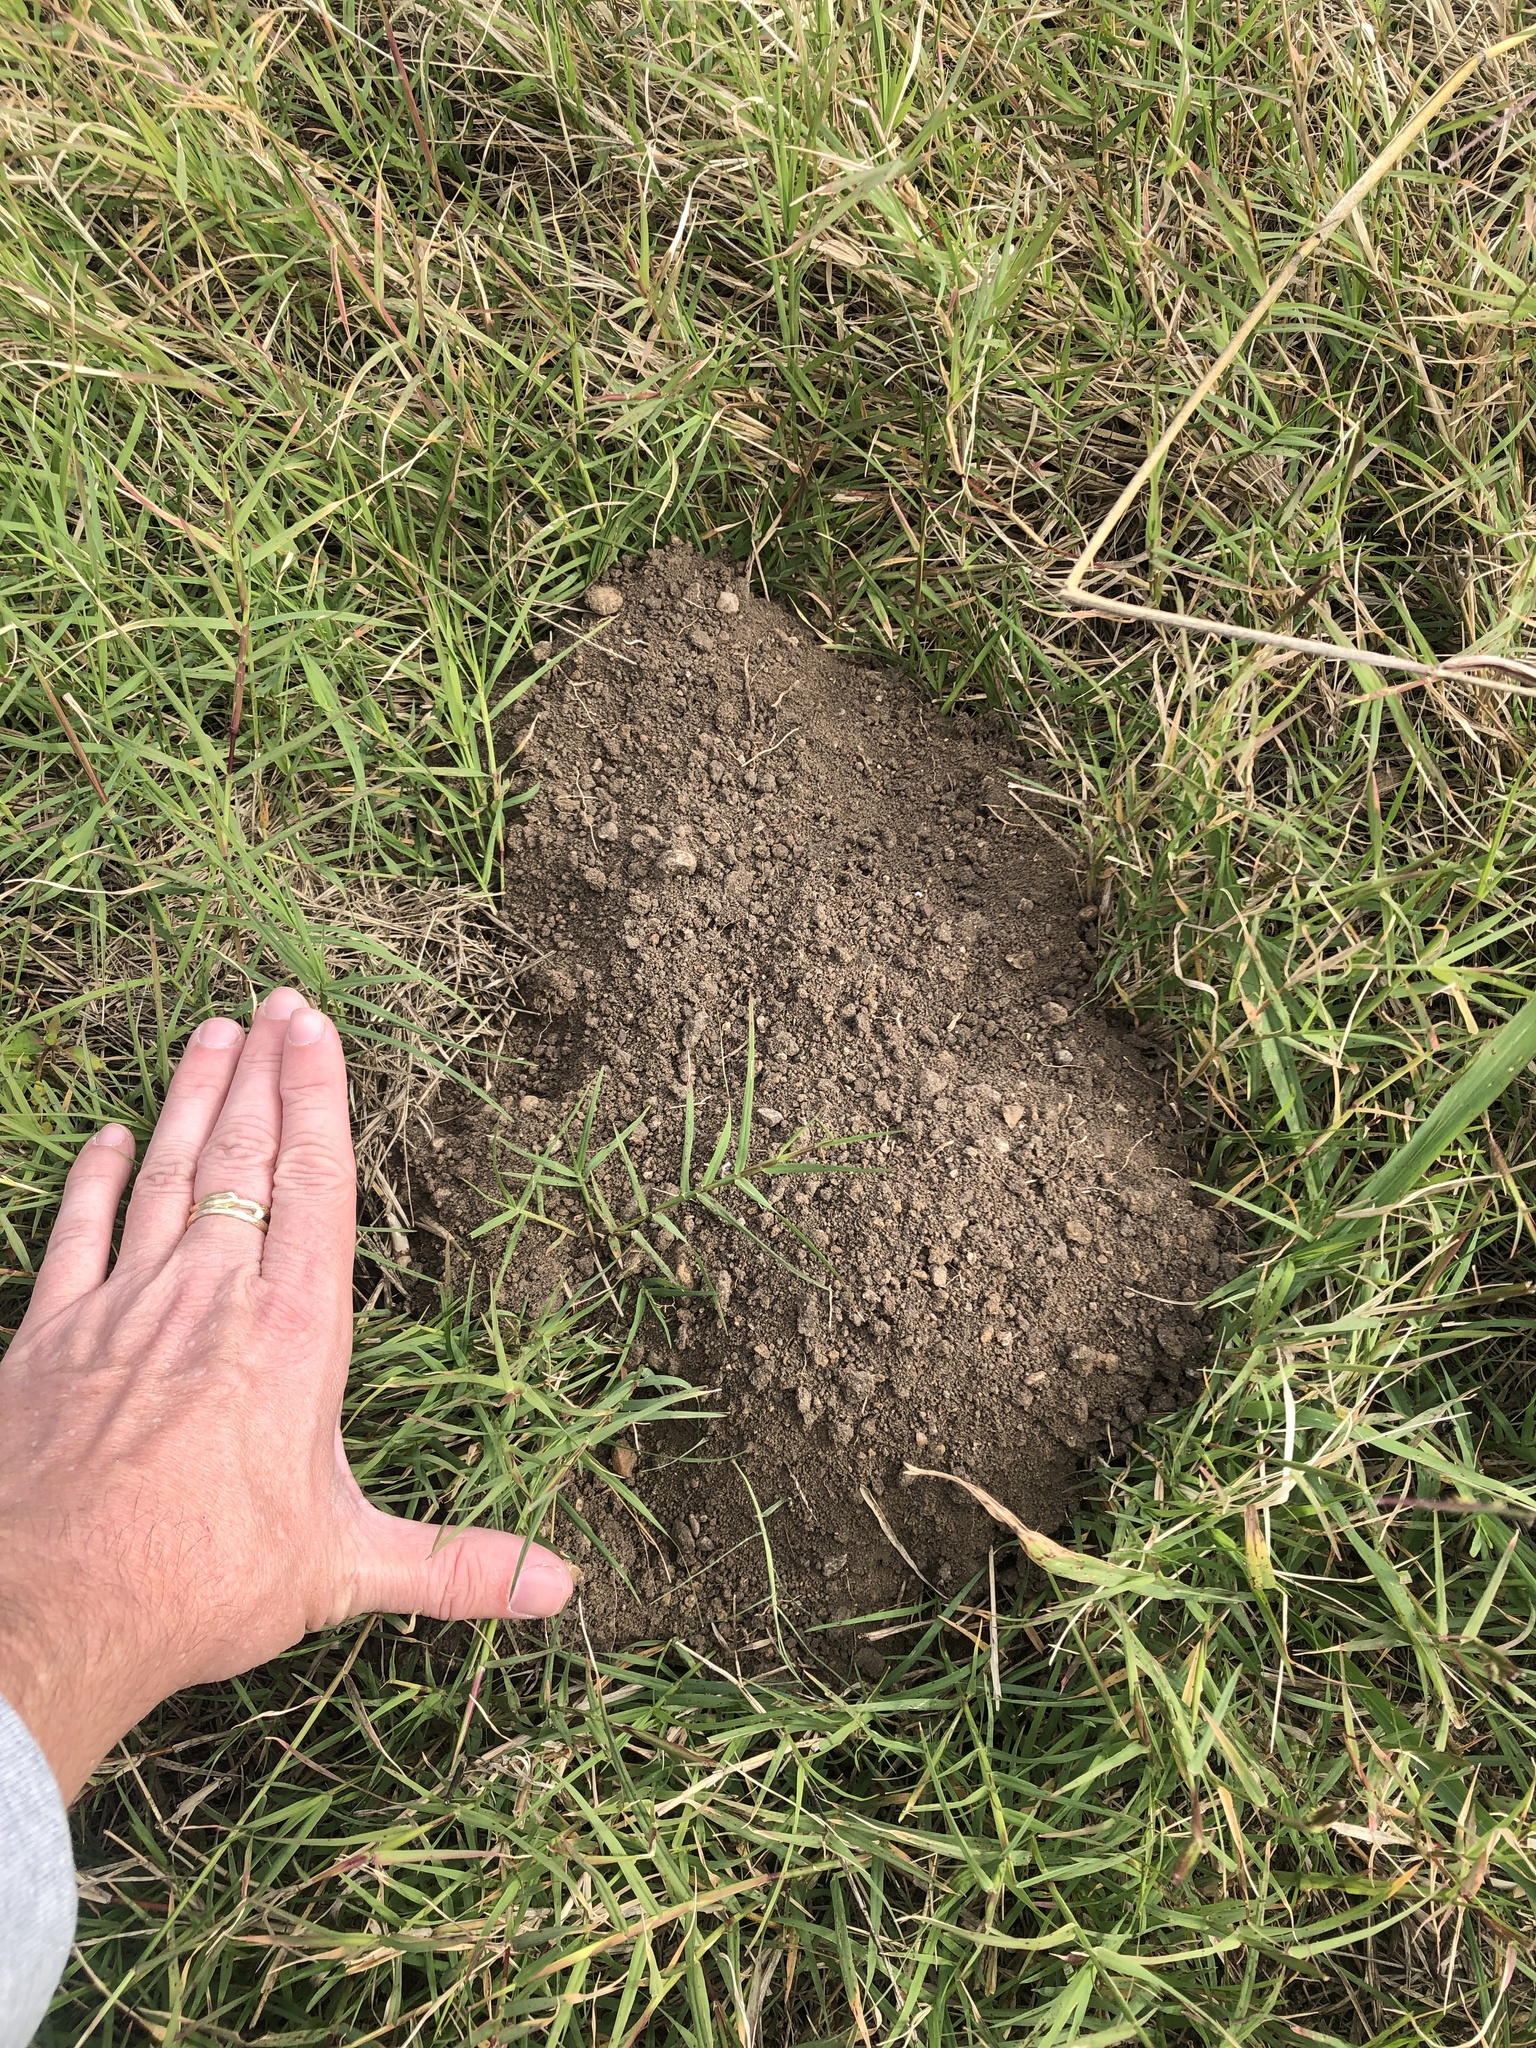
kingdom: Animalia
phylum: Chordata
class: Mammalia
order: Rodentia
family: Geomyidae
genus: Geomys
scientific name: Geomys bursarius
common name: Plains pocket gopher
